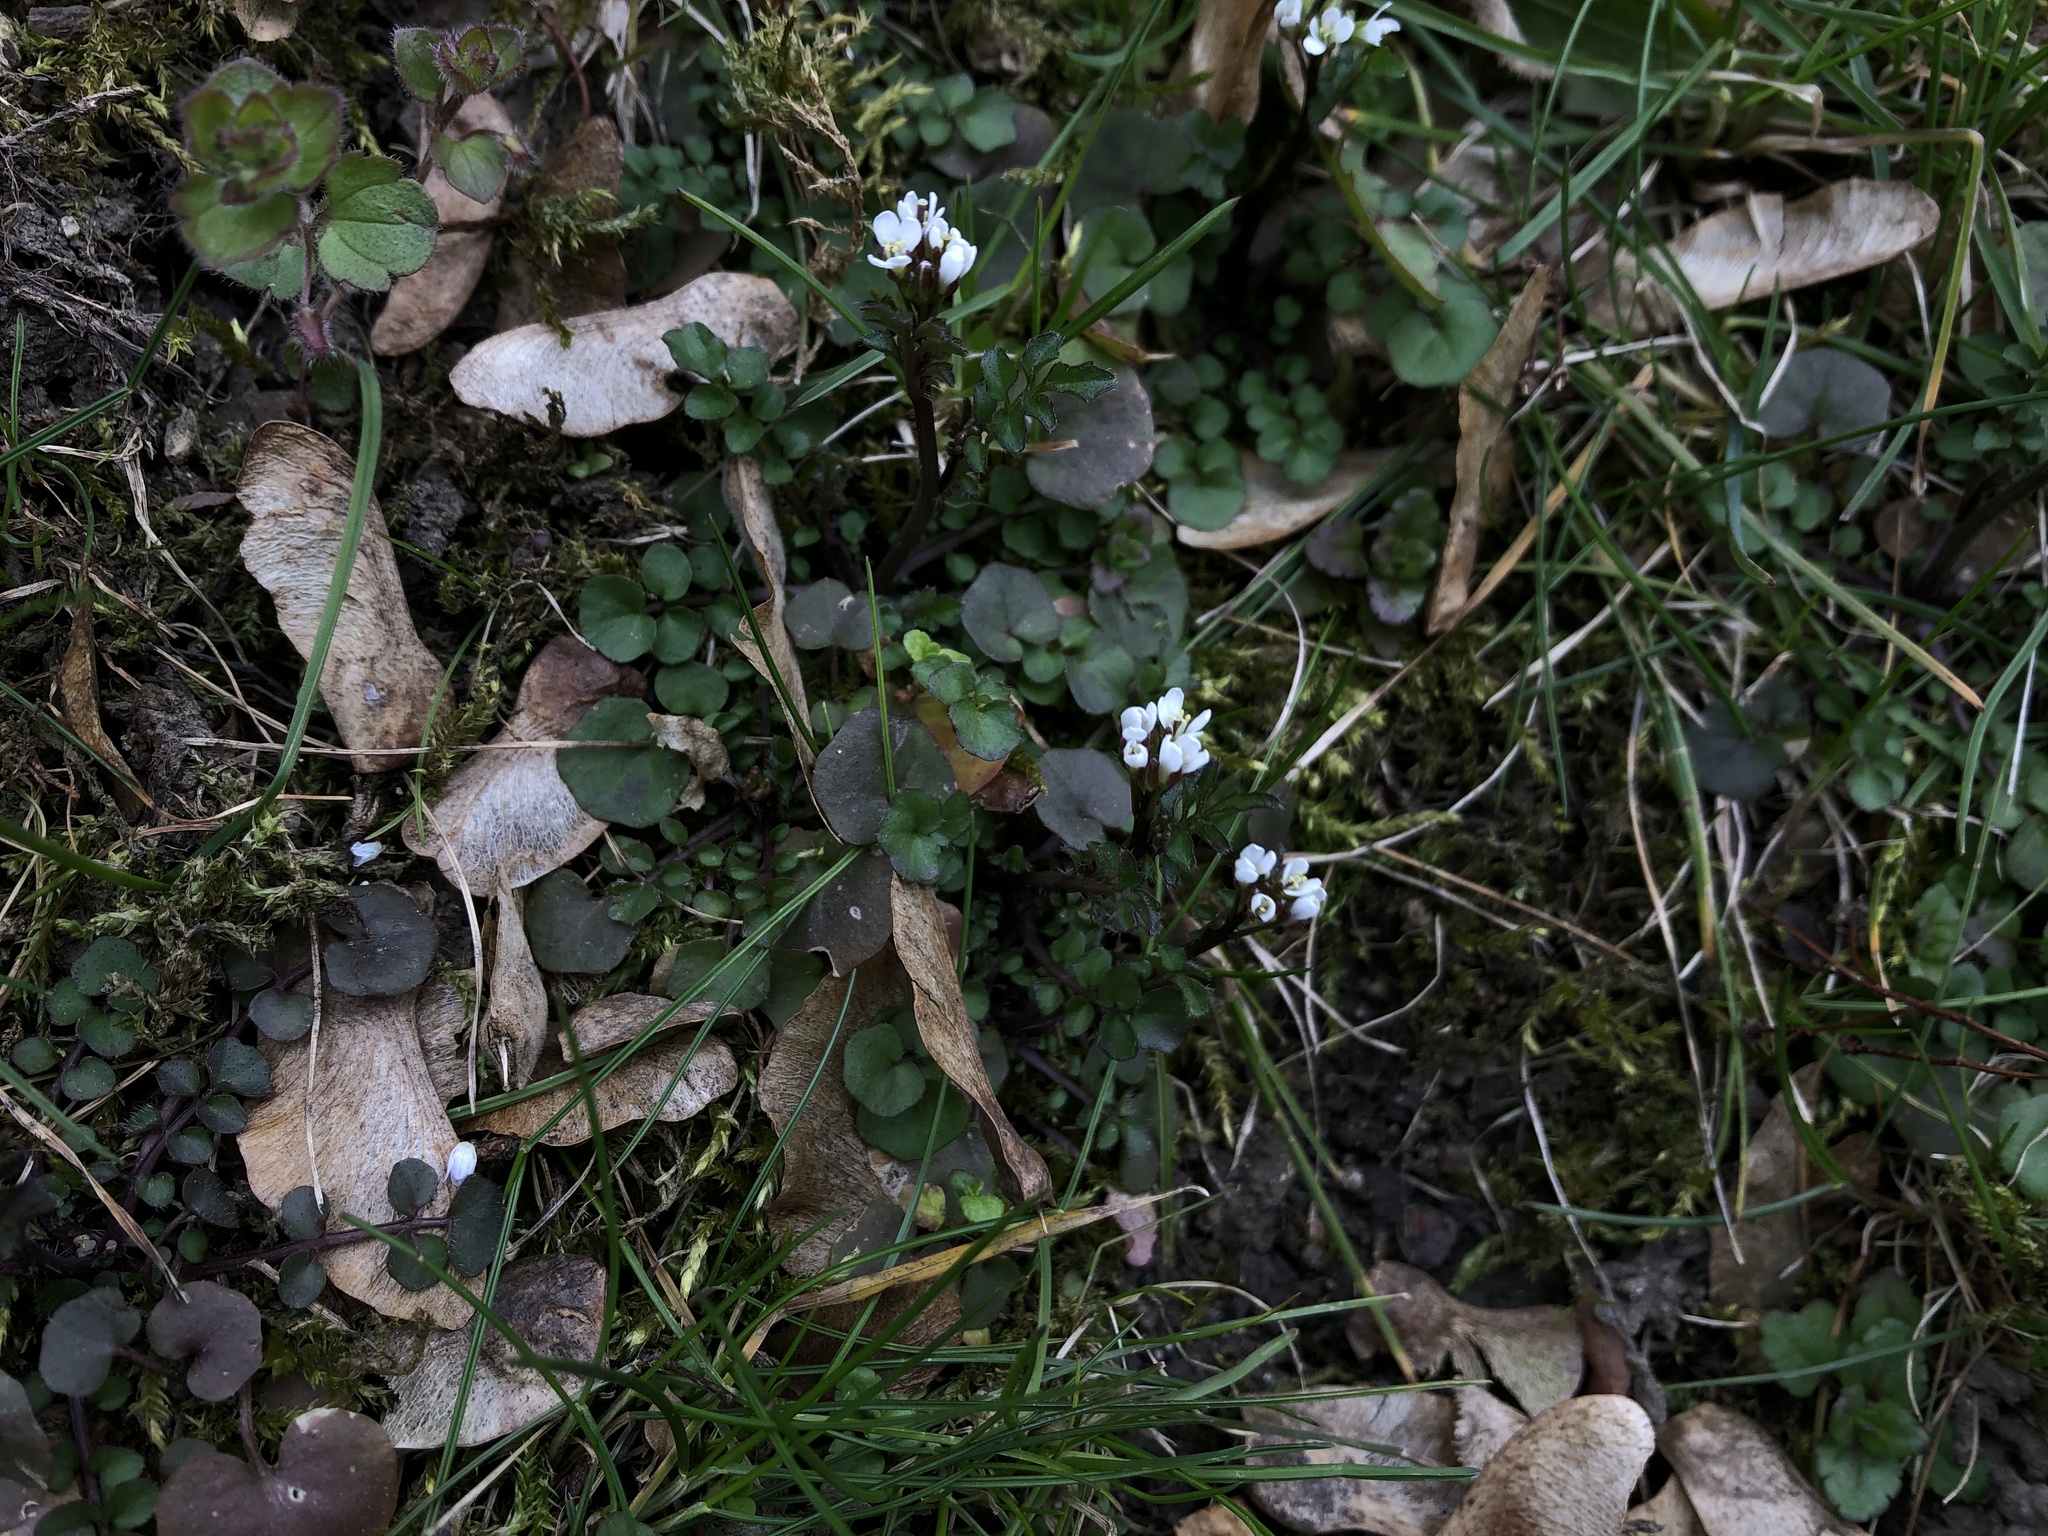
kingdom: Plantae
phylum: Tracheophyta
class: Magnoliopsida
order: Brassicales
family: Brassicaceae
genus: Cardamine
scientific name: Cardamine hirsuta
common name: Hairy bittercress
